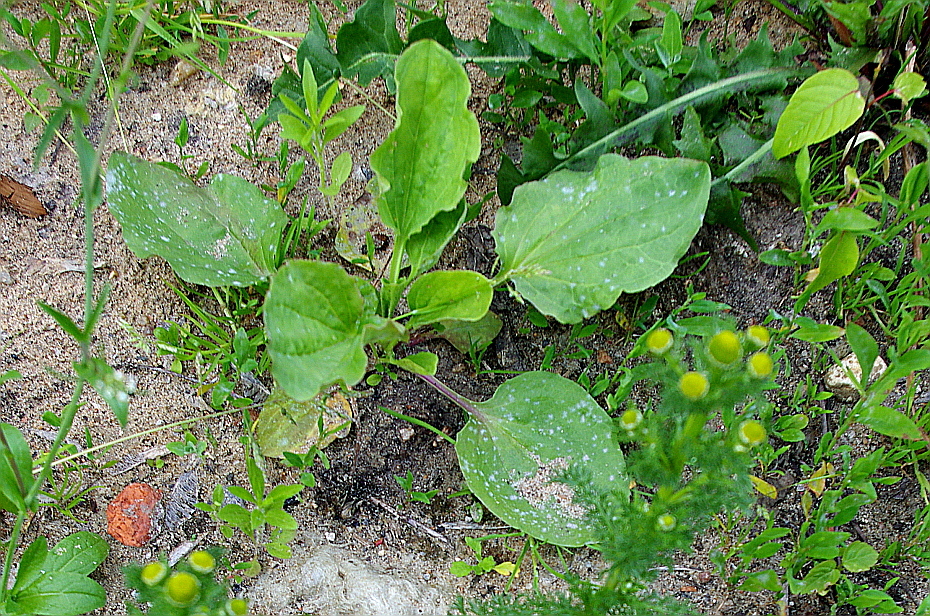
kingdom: Plantae
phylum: Tracheophyta
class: Magnoliopsida
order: Lamiales
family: Plantaginaceae
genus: Plantago
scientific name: Plantago major
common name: Common plantain
